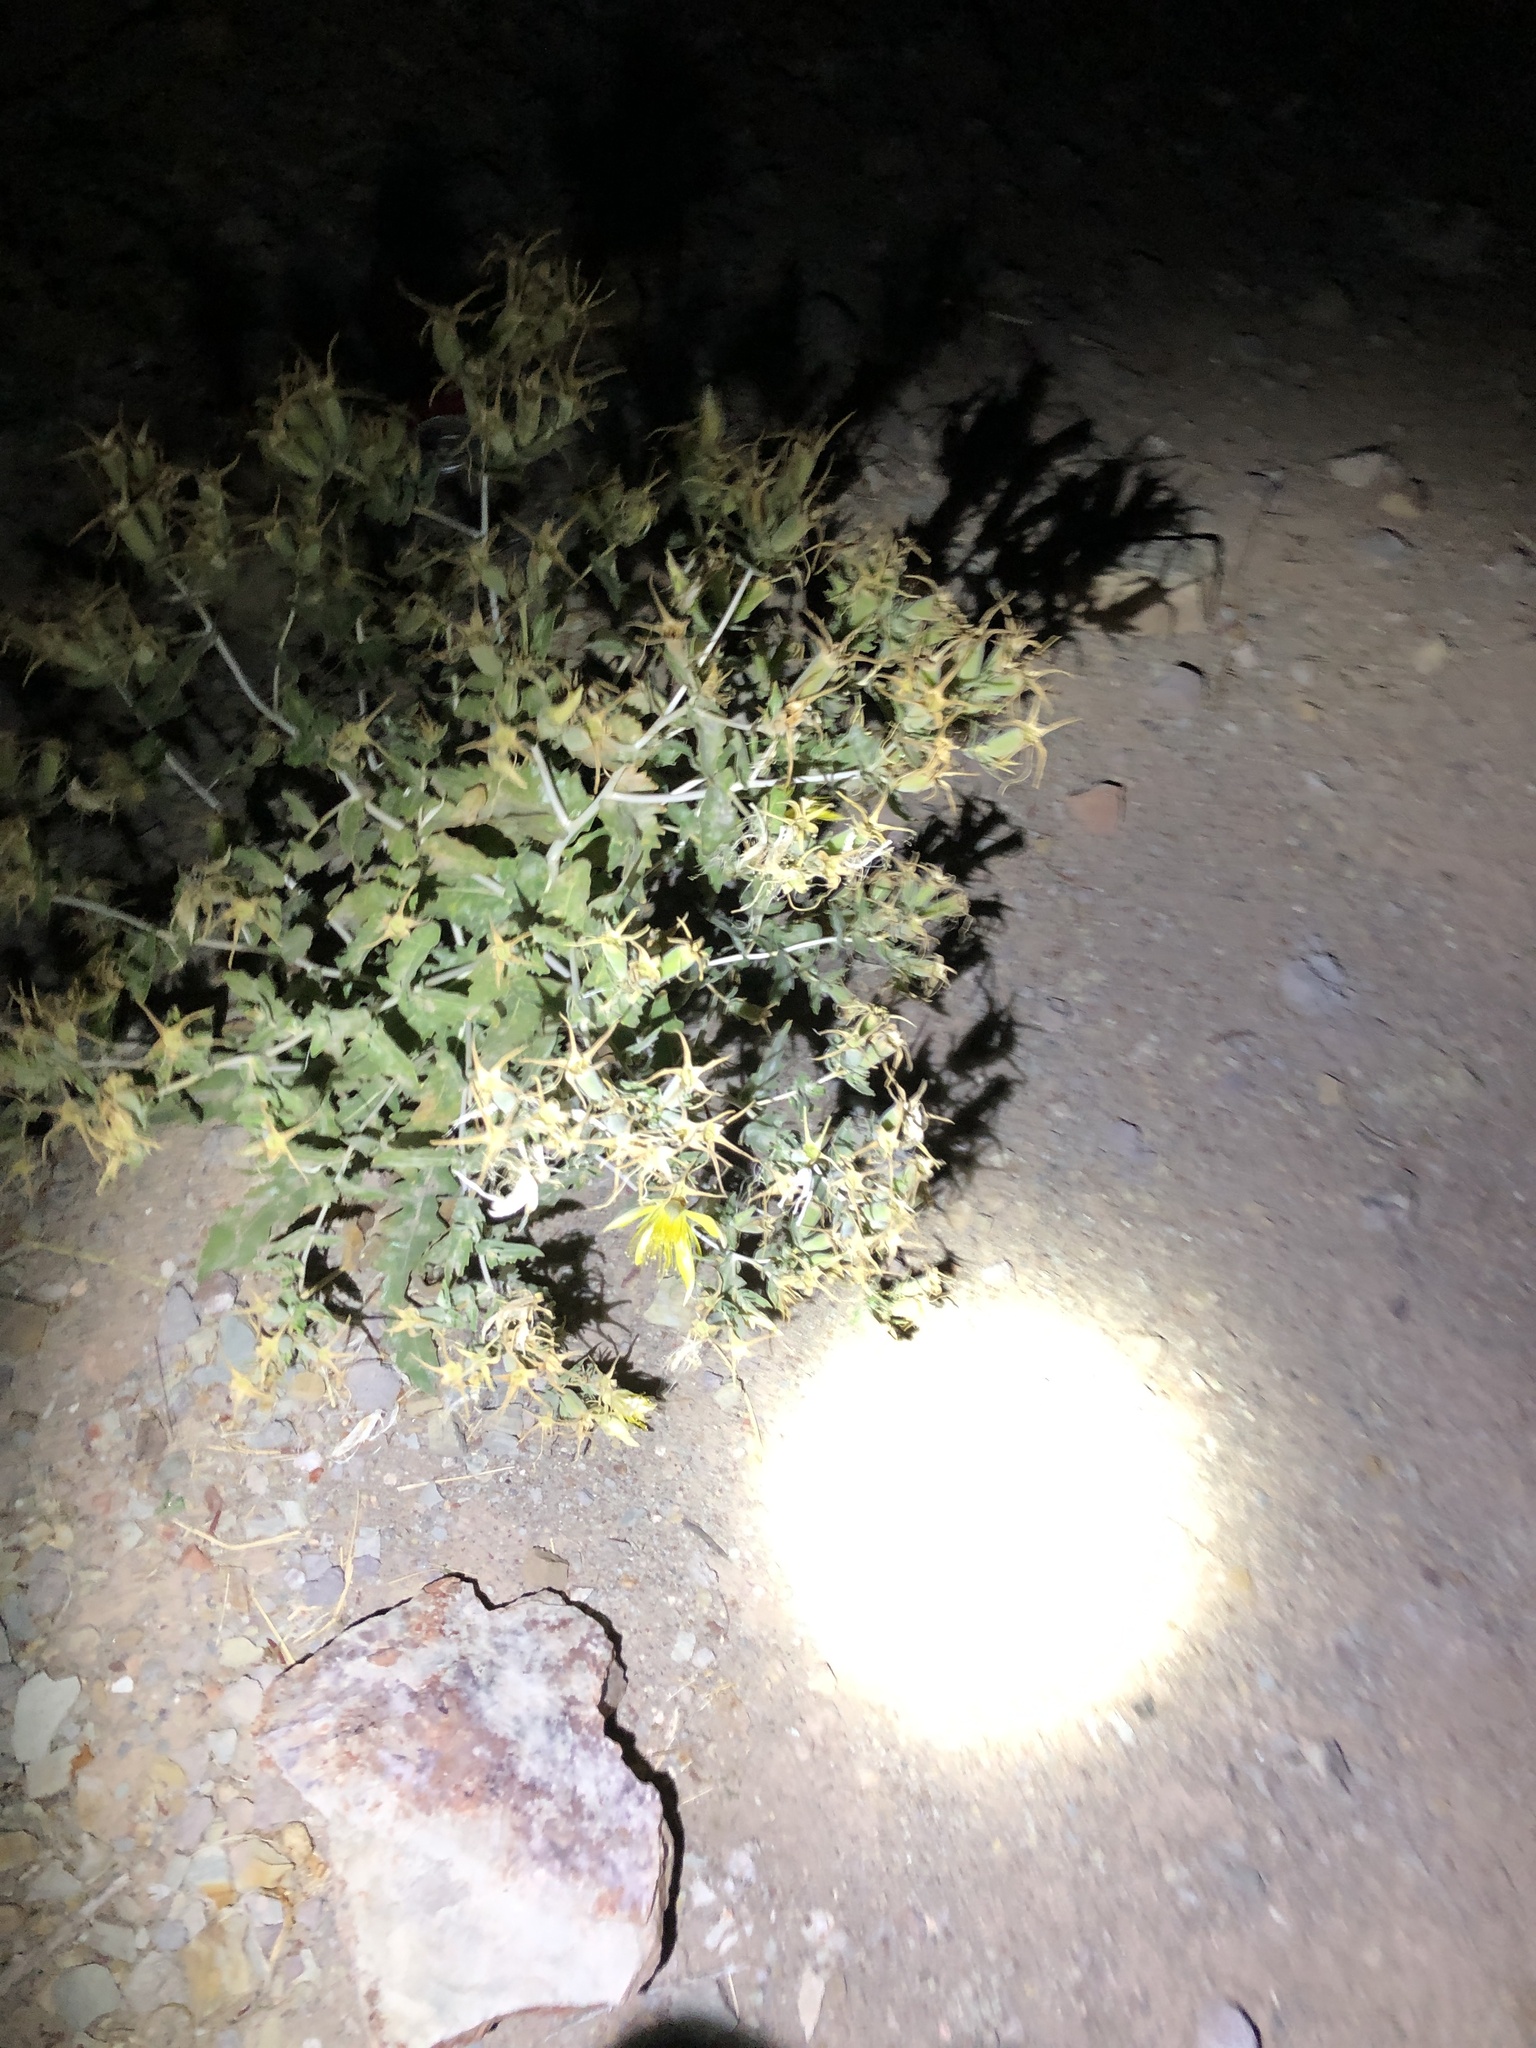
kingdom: Plantae
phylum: Tracheophyta
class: Magnoliopsida
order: Cornales
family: Loasaceae
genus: Mentzelia
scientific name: Mentzelia laevicaulis
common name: Smooth-stem blazingstar
